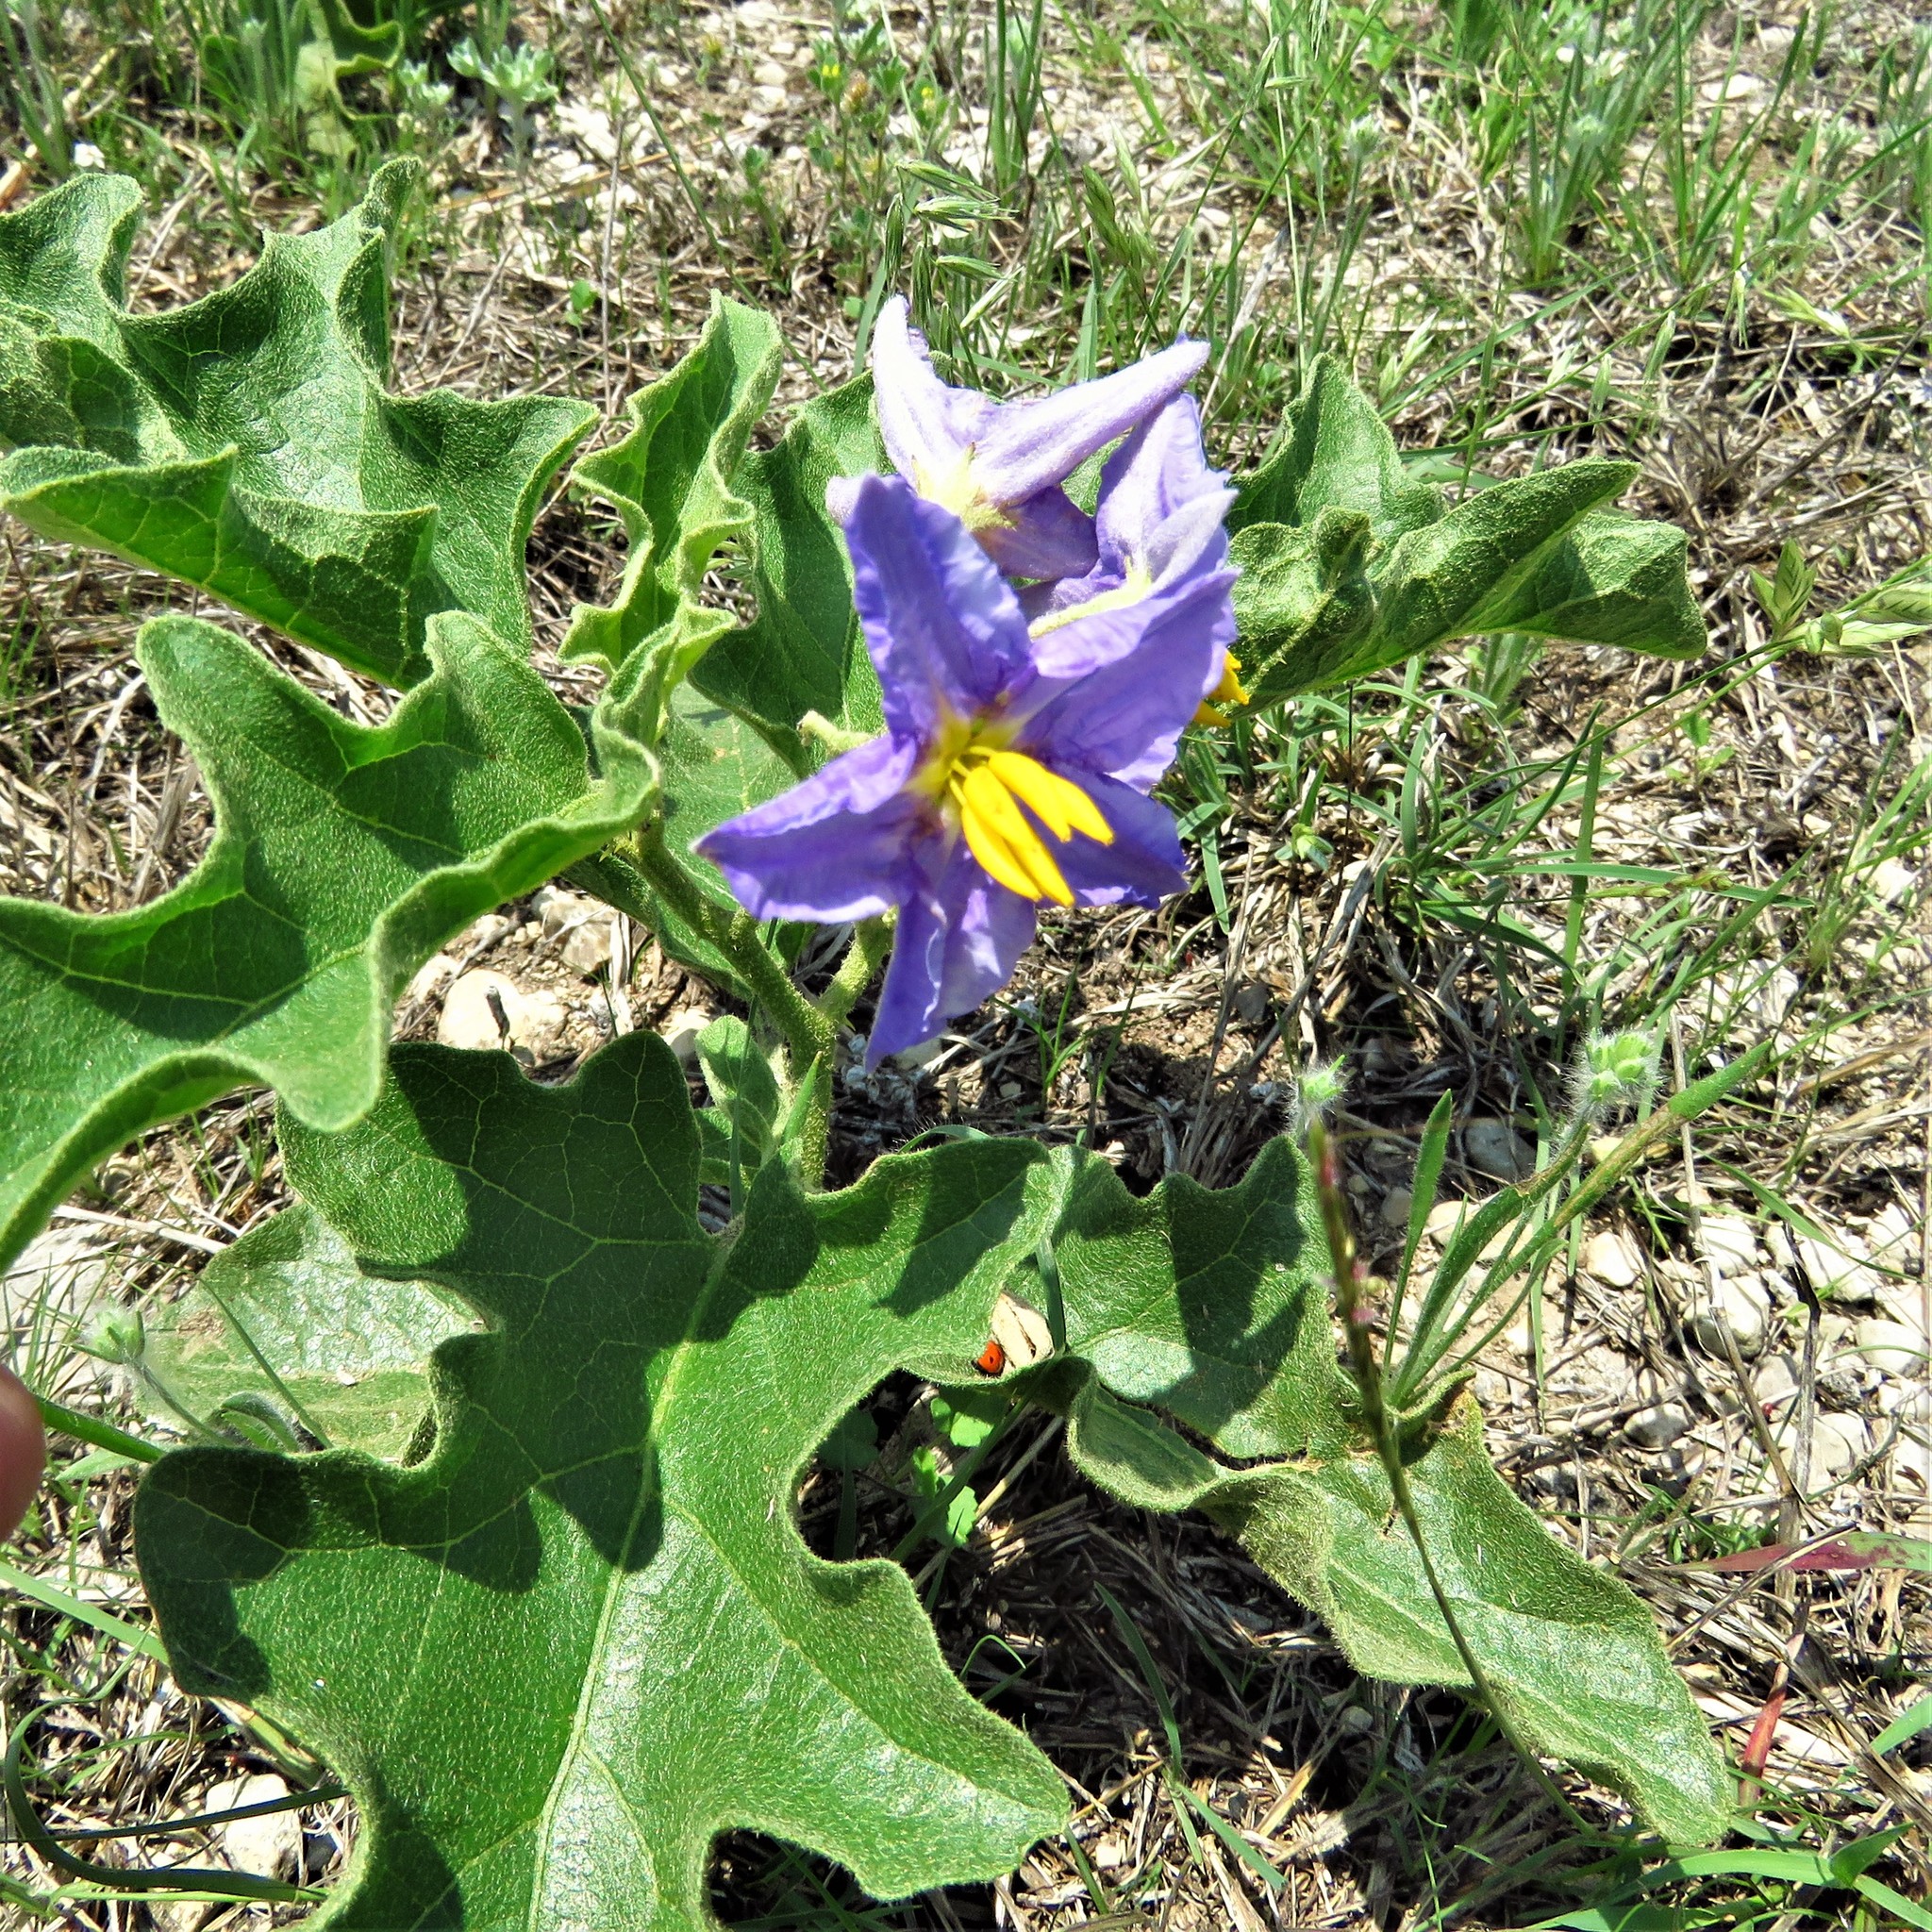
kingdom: Plantae
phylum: Tracheophyta
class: Magnoliopsida
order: Solanales
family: Solanaceae
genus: Solanum
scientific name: Solanum dimidiatum
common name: Carolina horse-nettle
